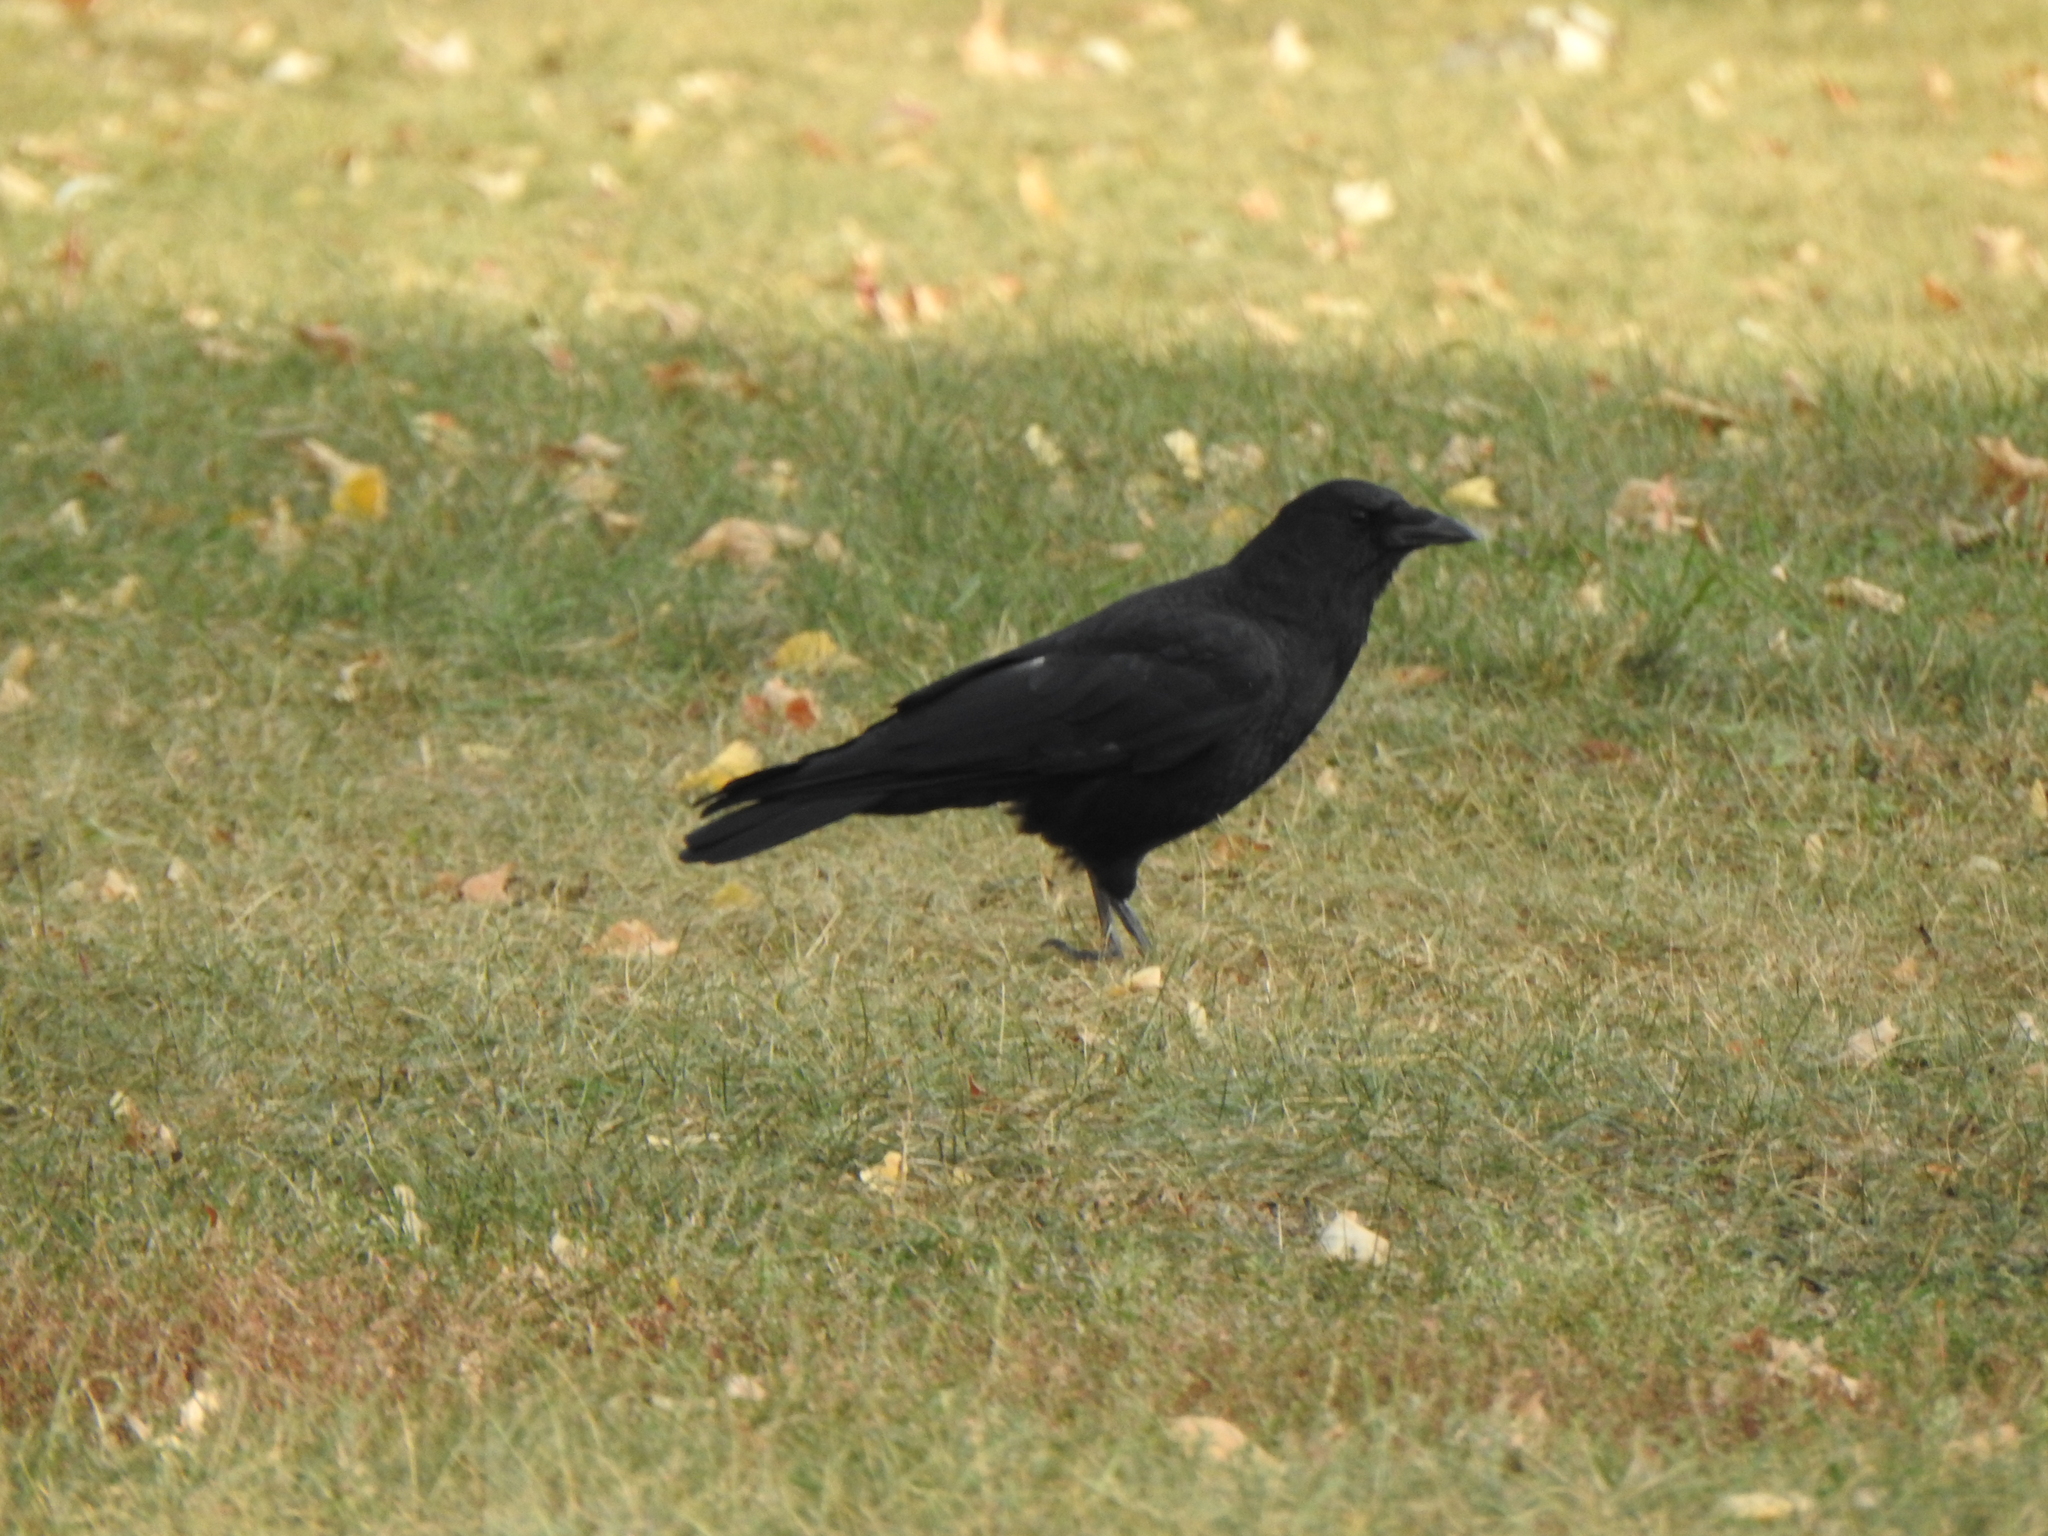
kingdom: Animalia
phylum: Chordata
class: Aves
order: Passeriformes
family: Corvidae
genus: Corvus
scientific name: Corvus brachyrhynchos
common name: American crow
